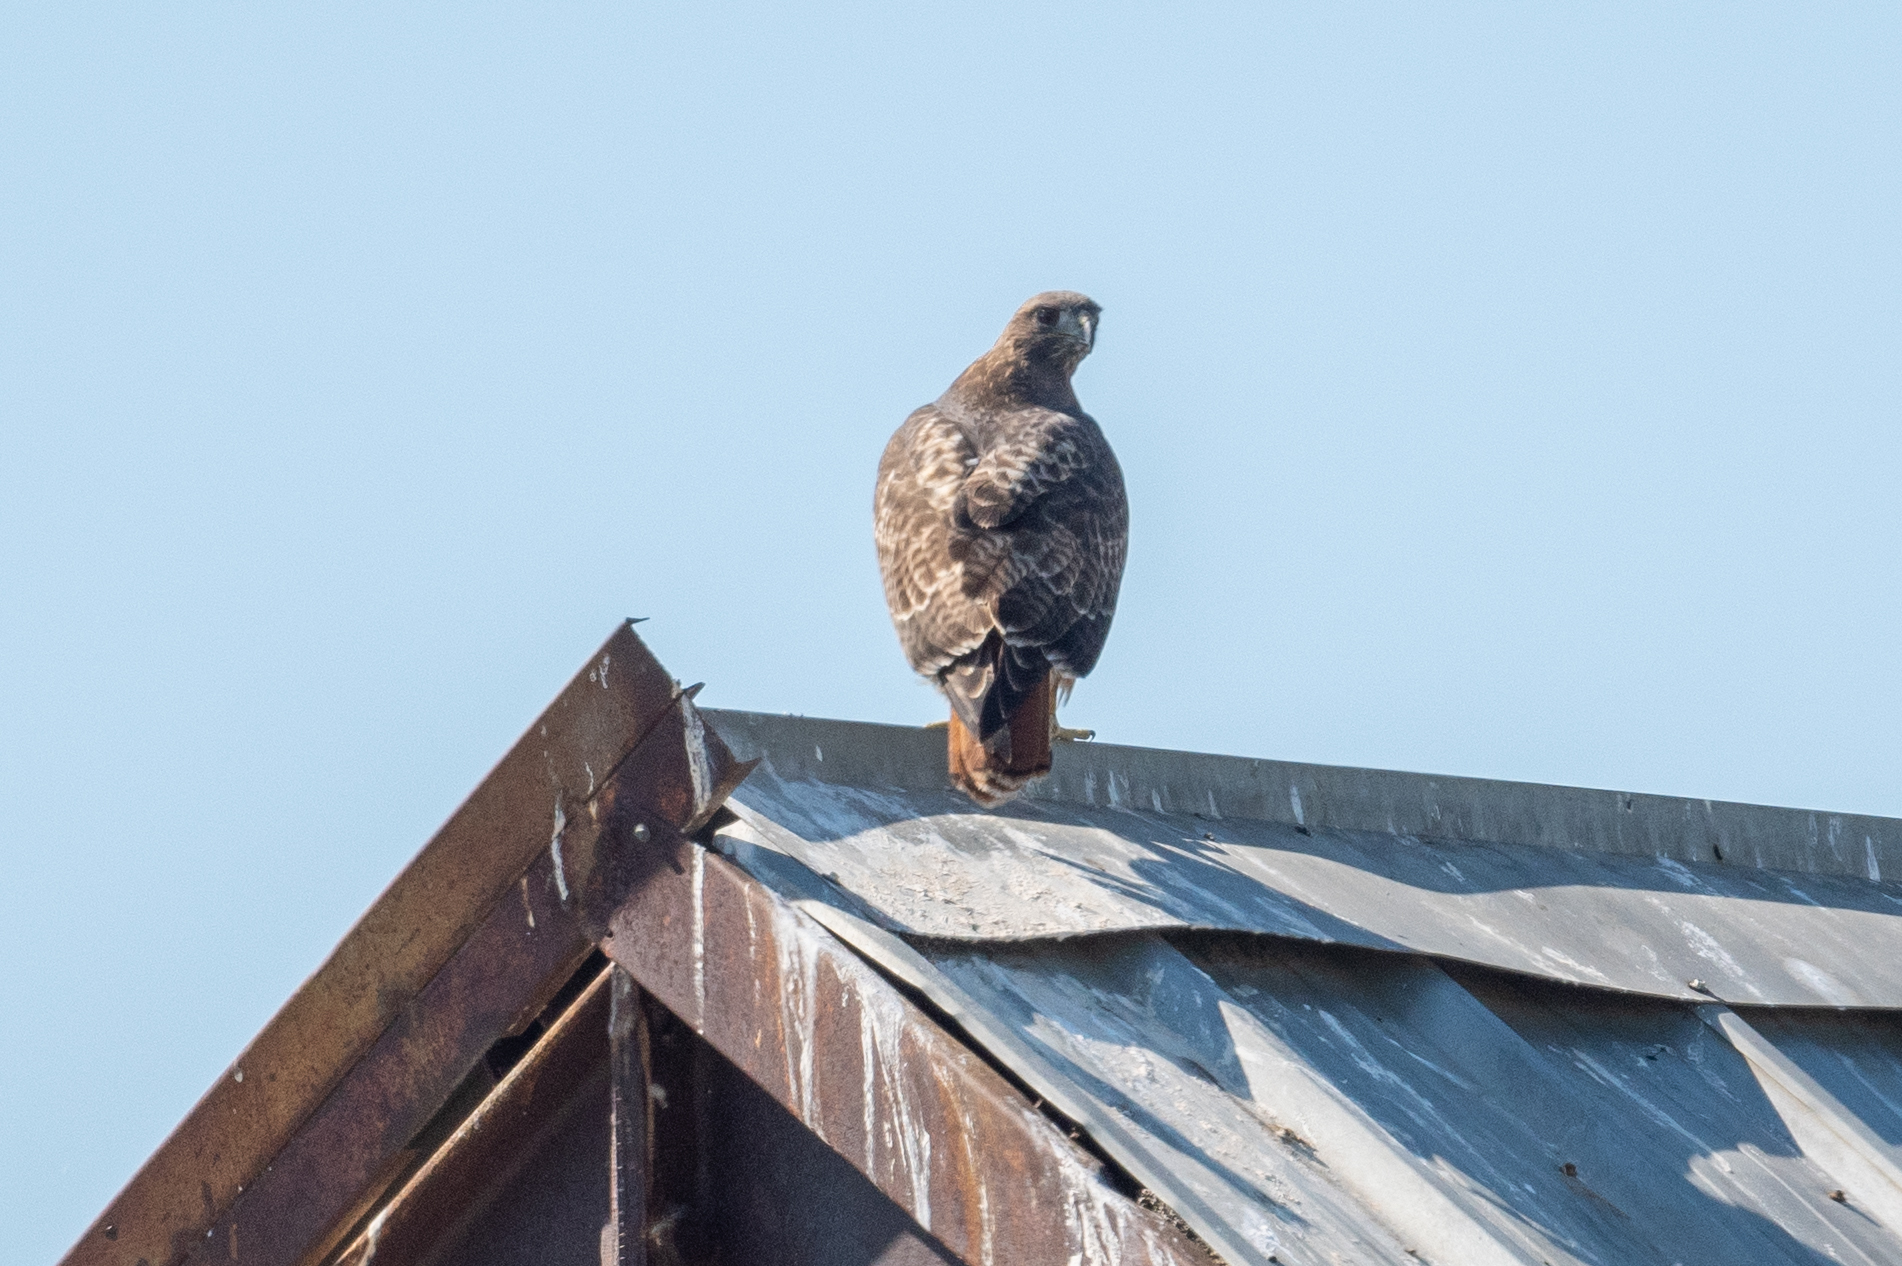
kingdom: Animalia
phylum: Chordata
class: Aves
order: Accipitriformes
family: Accipitridae
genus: Buteo
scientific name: Buteo jamaicensis
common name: Red-tailed hawk
